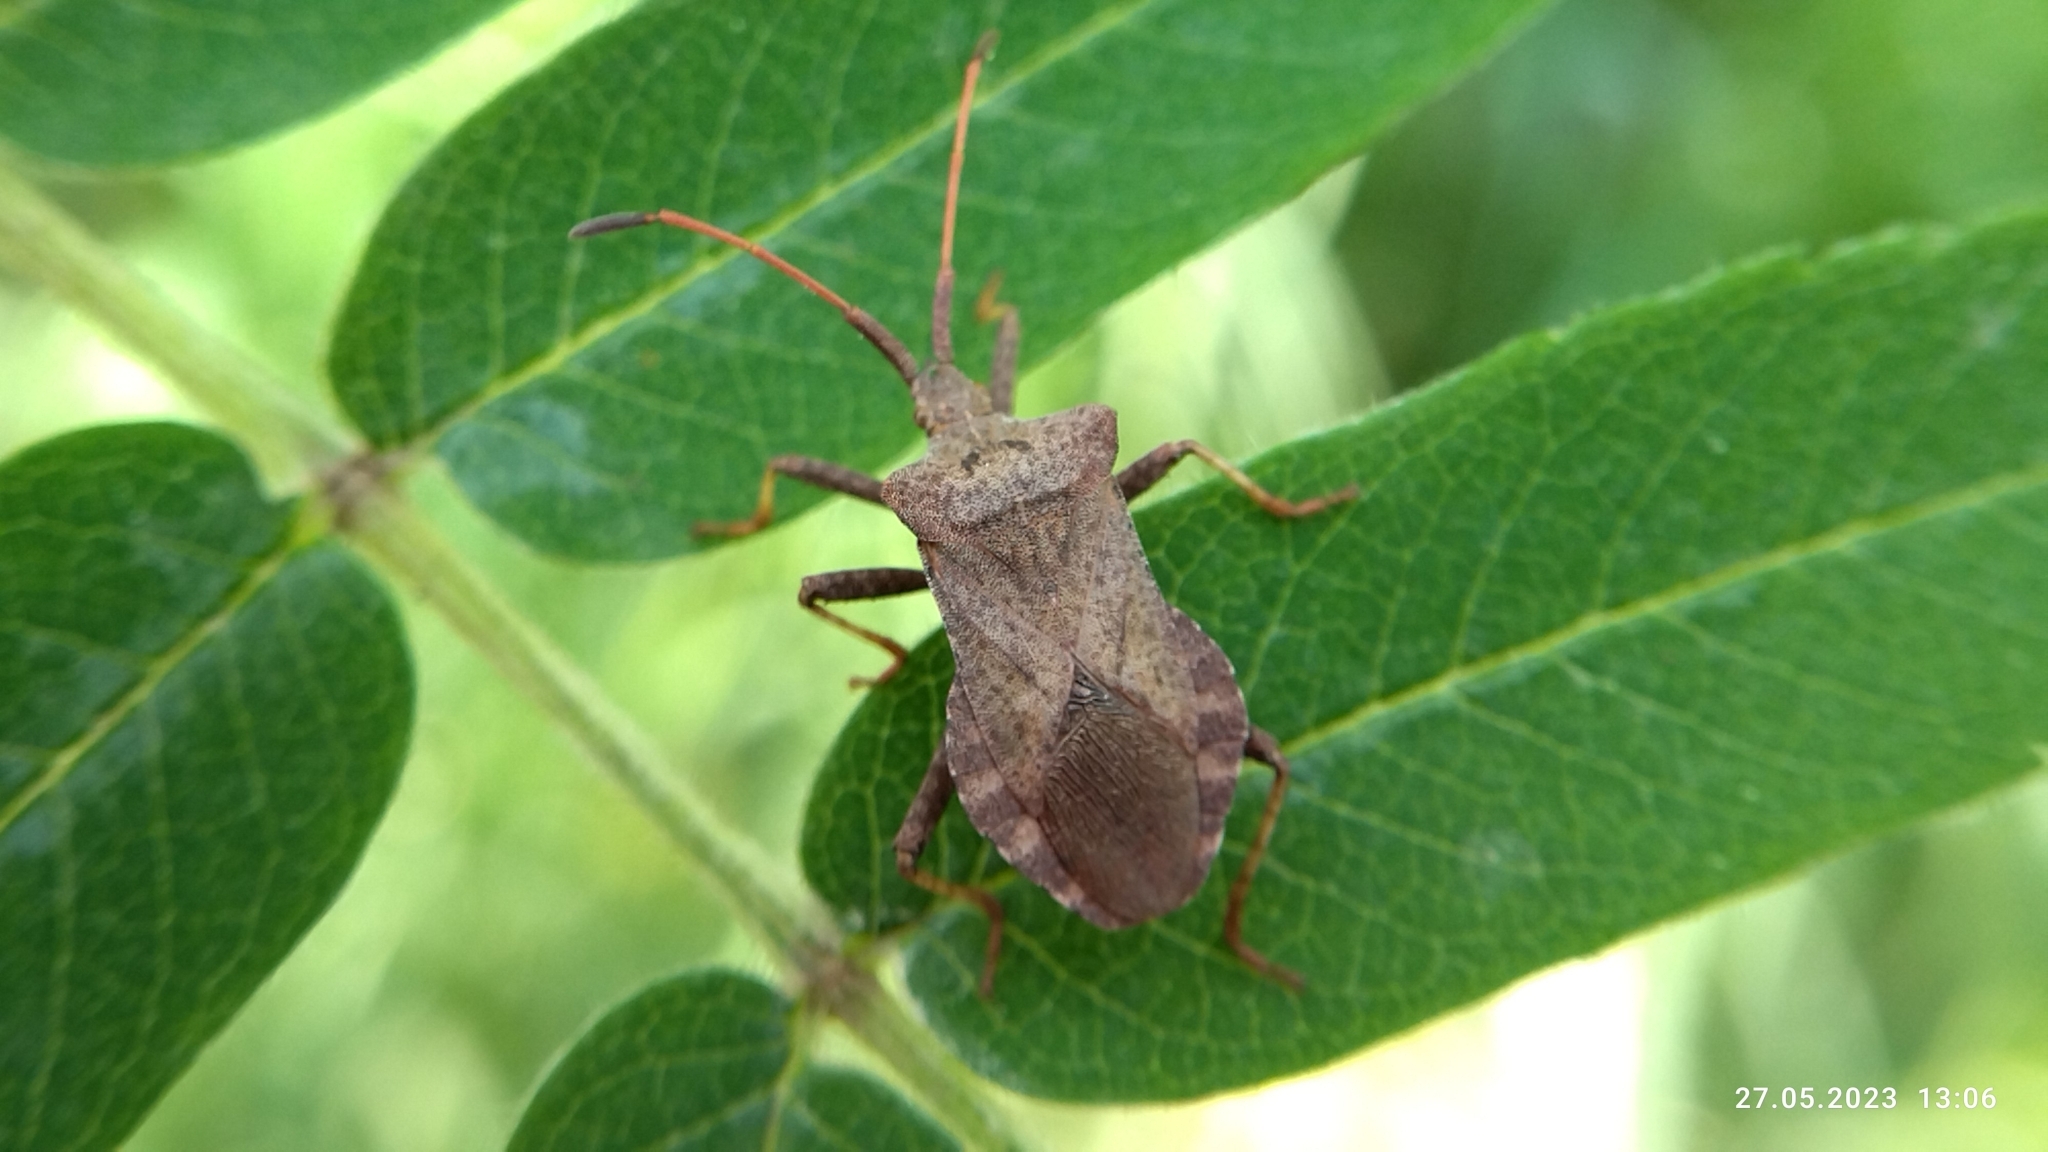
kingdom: Animalia
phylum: Arthropoda
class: Insecta
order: Hemiptera
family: Coreidae
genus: Coreus
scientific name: Coreus marginatus
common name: Dock bug
